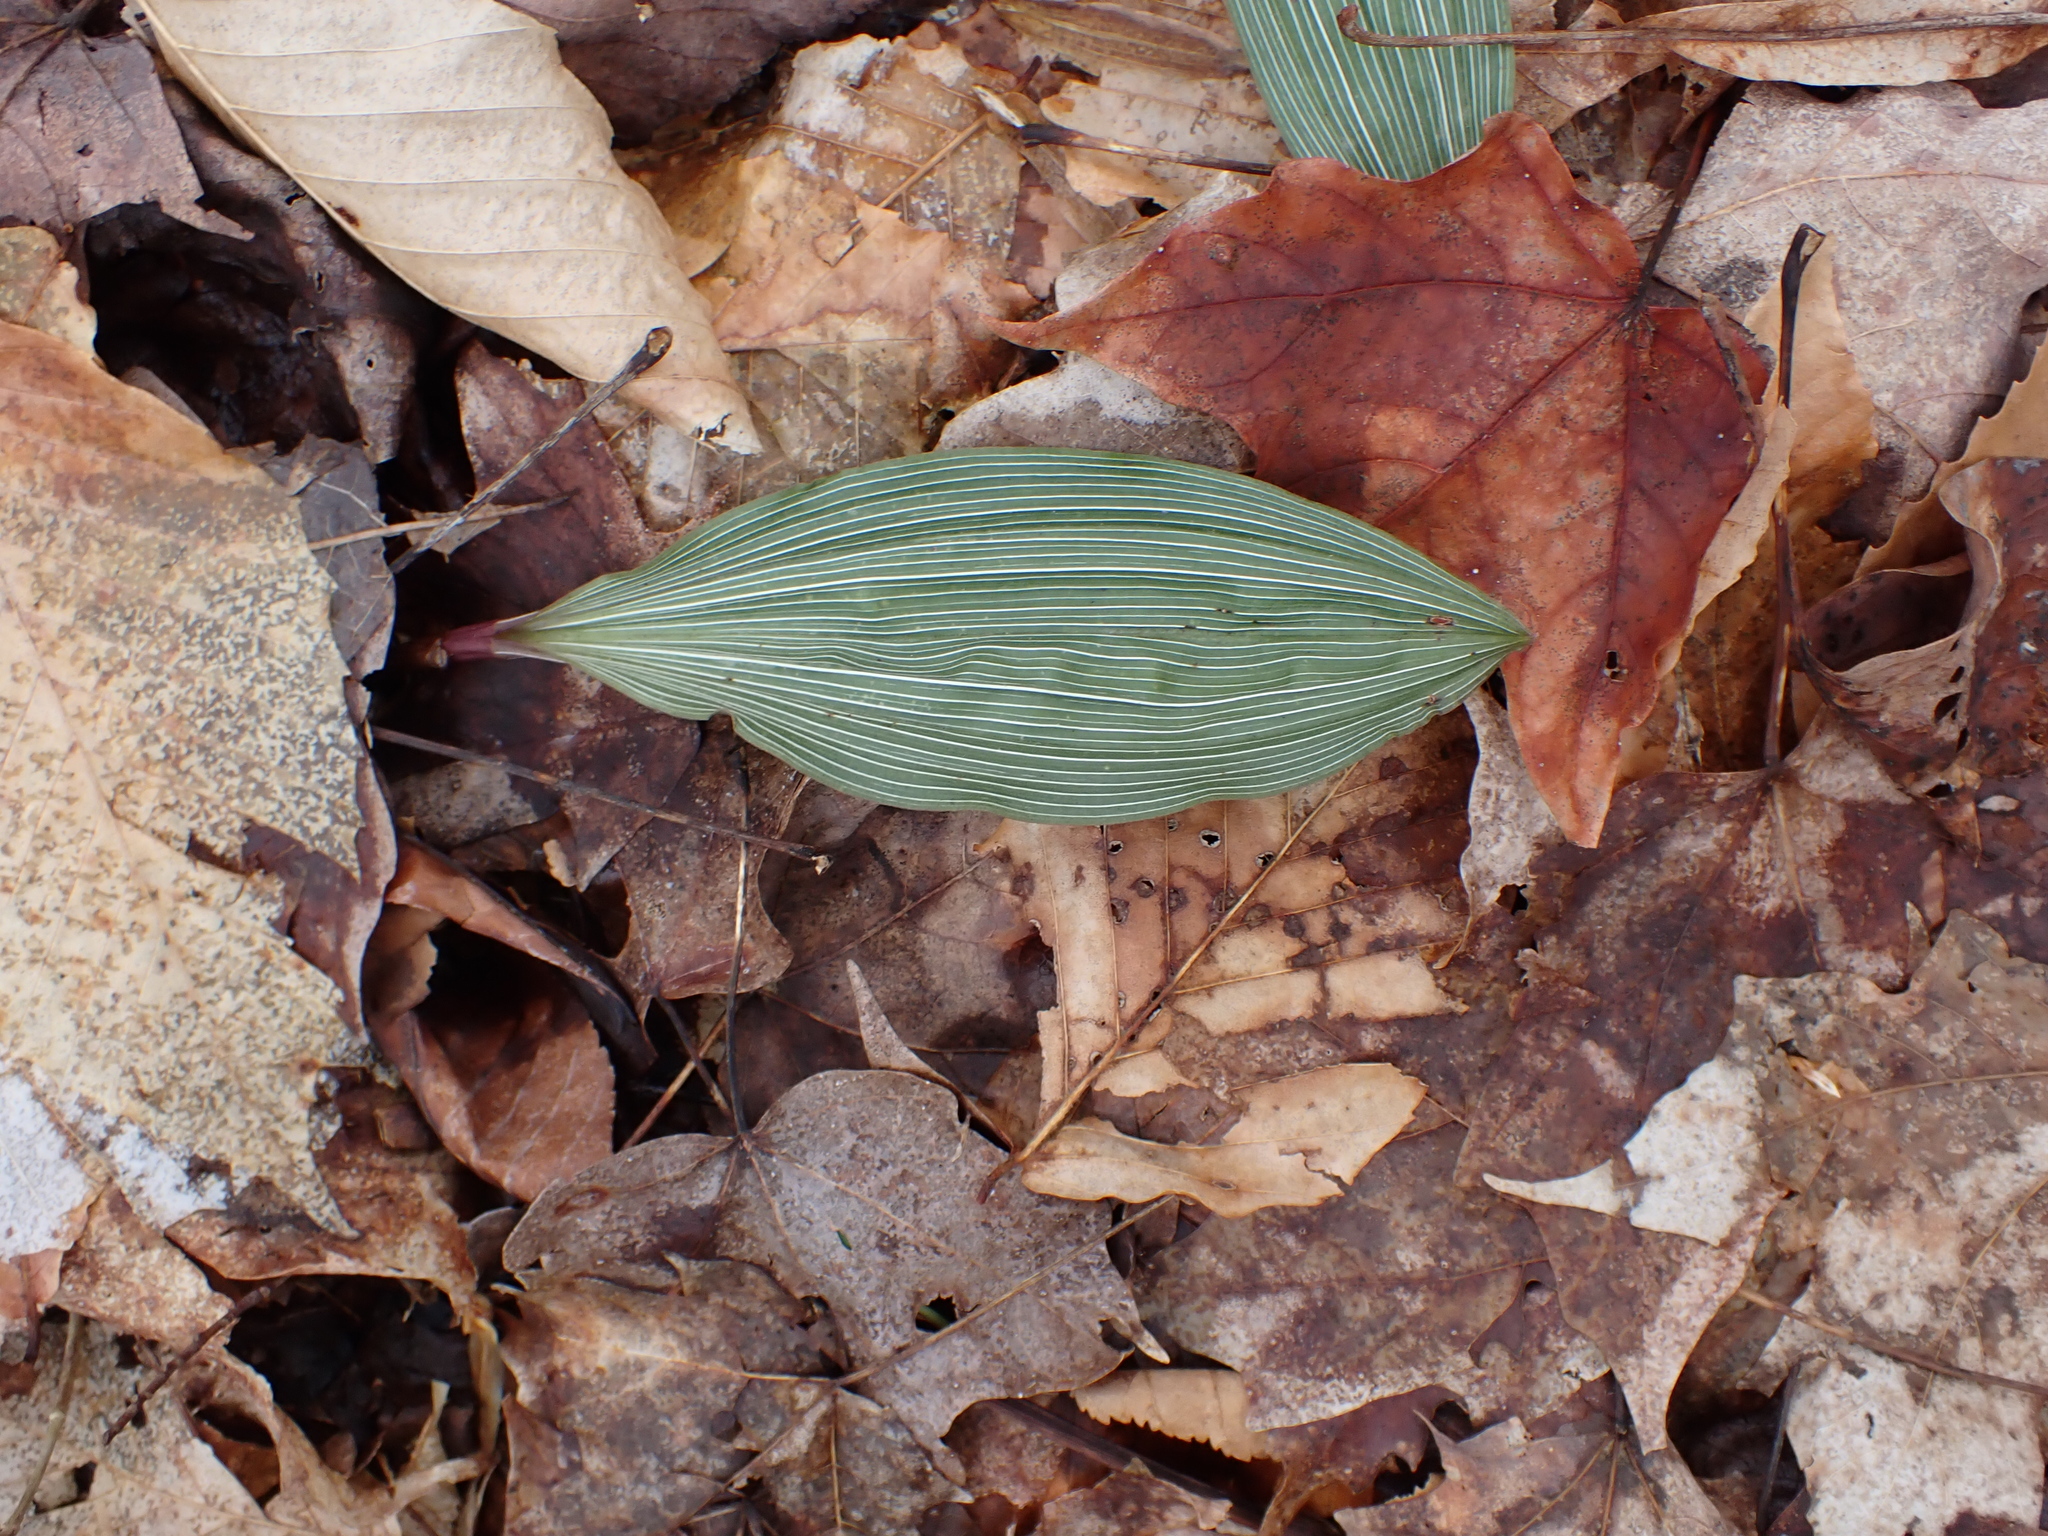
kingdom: Plantae
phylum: Tracheophyta
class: Liliopsida
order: Asparagales
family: Orchidaceae
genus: Aplectrum
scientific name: Aplectrum hyemale
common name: Adam-and-eve
